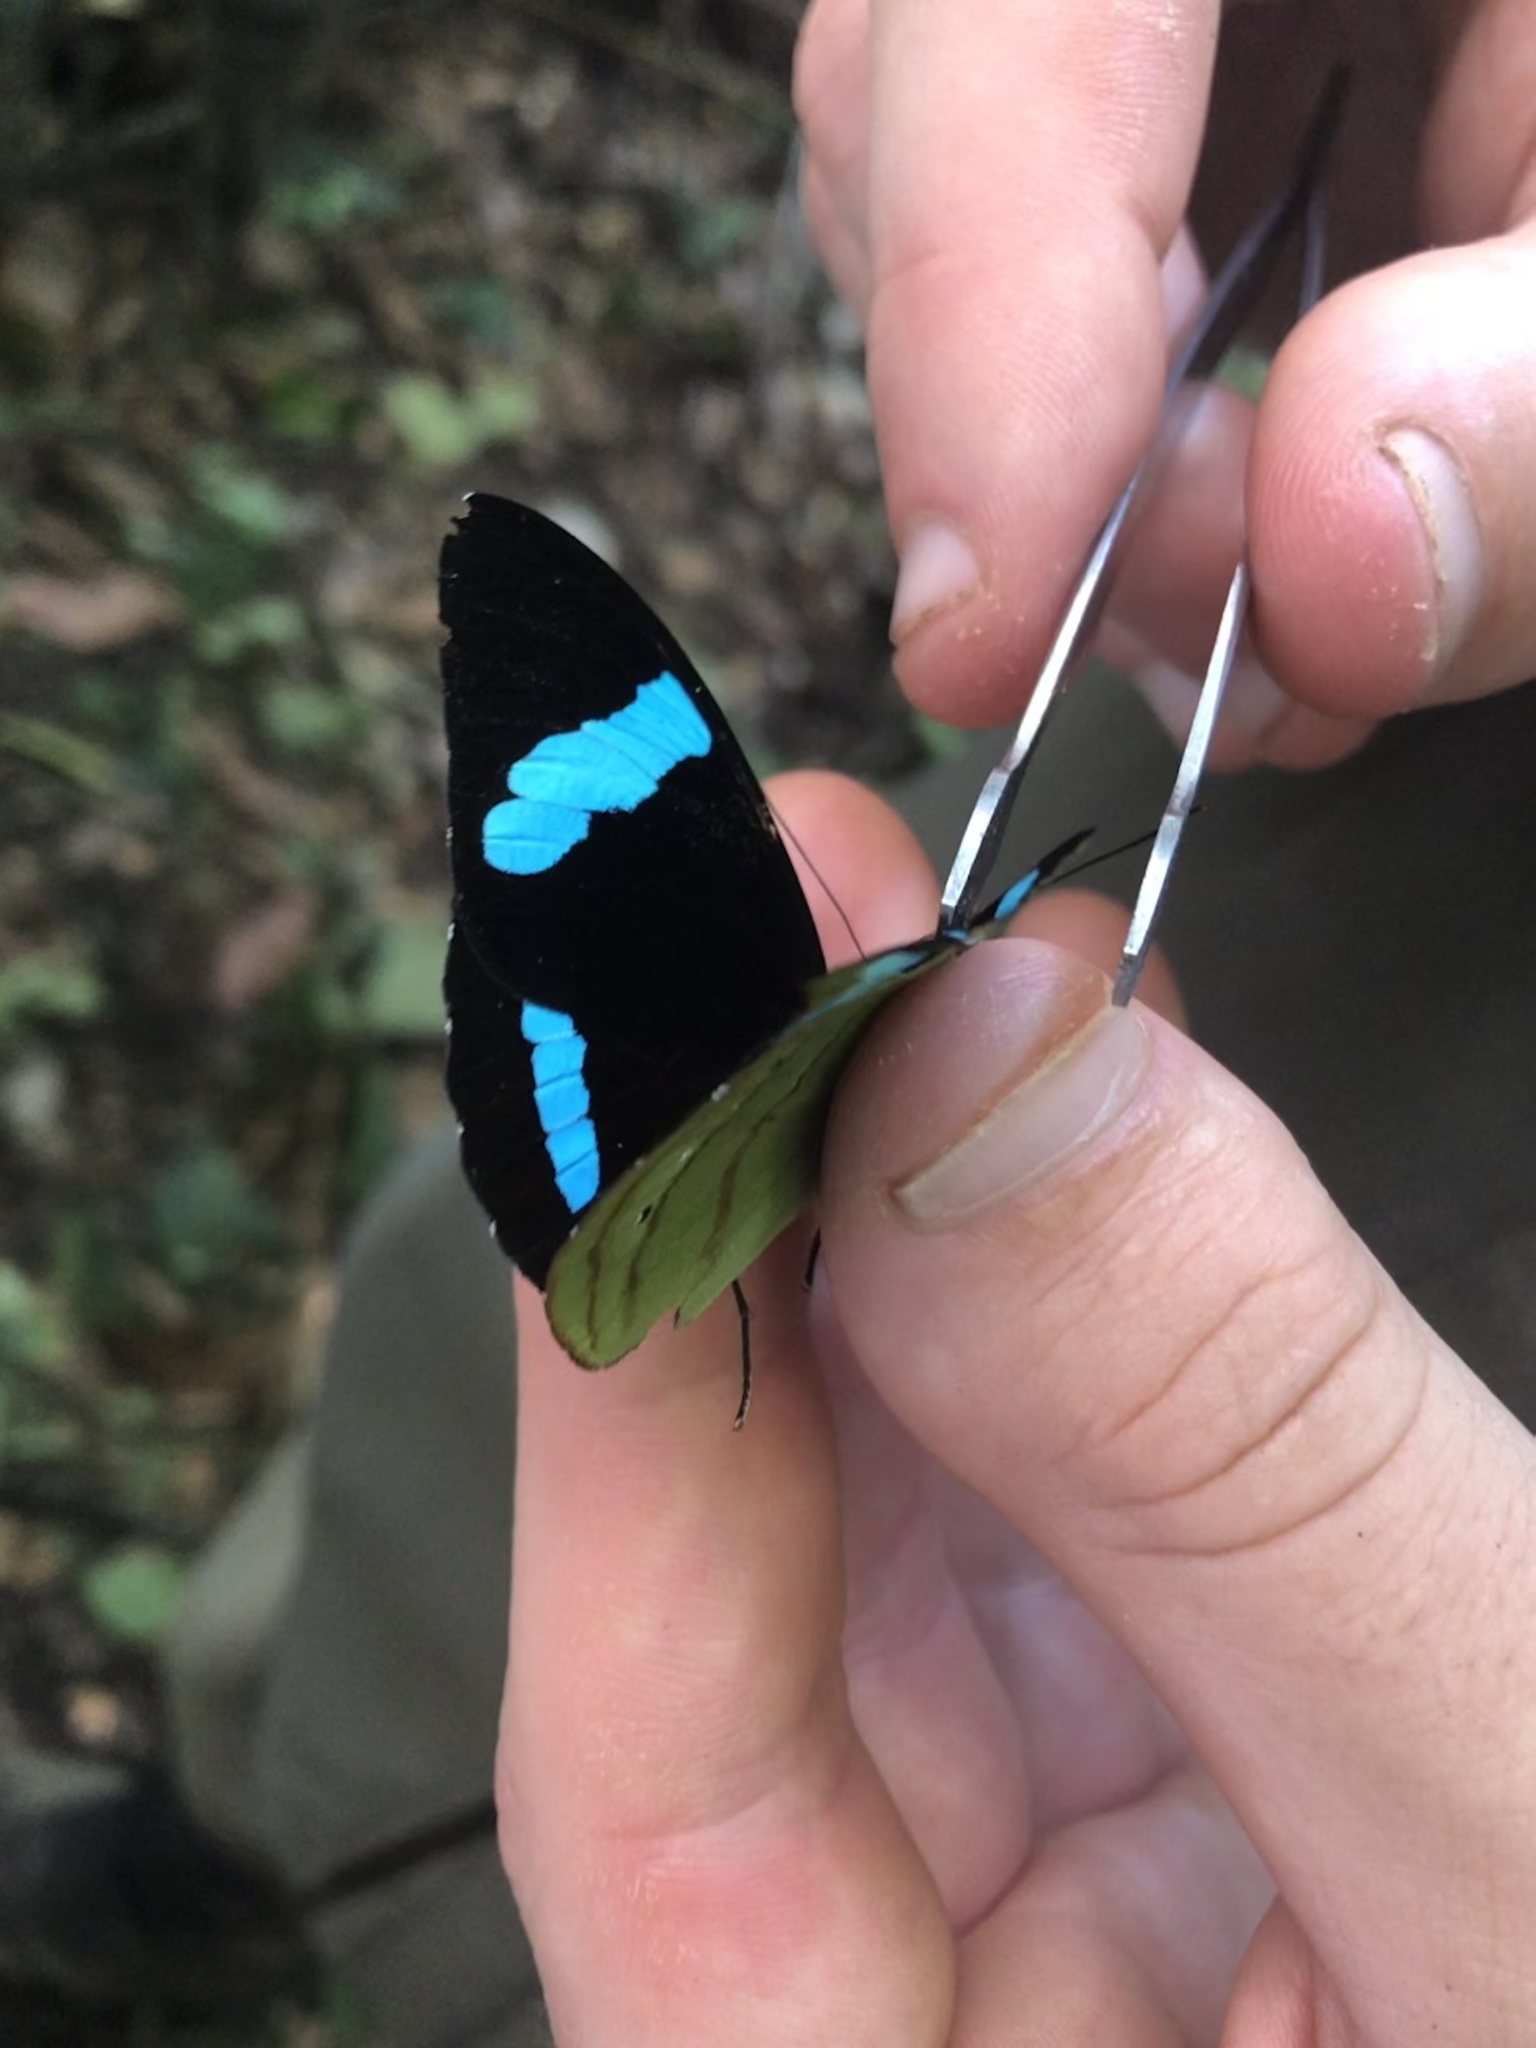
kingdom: Animalia
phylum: Arthropoda
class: Insecta
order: Lepidoptera
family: Nymphalidae
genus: Nessaea
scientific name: Nessaea hewitsonii
